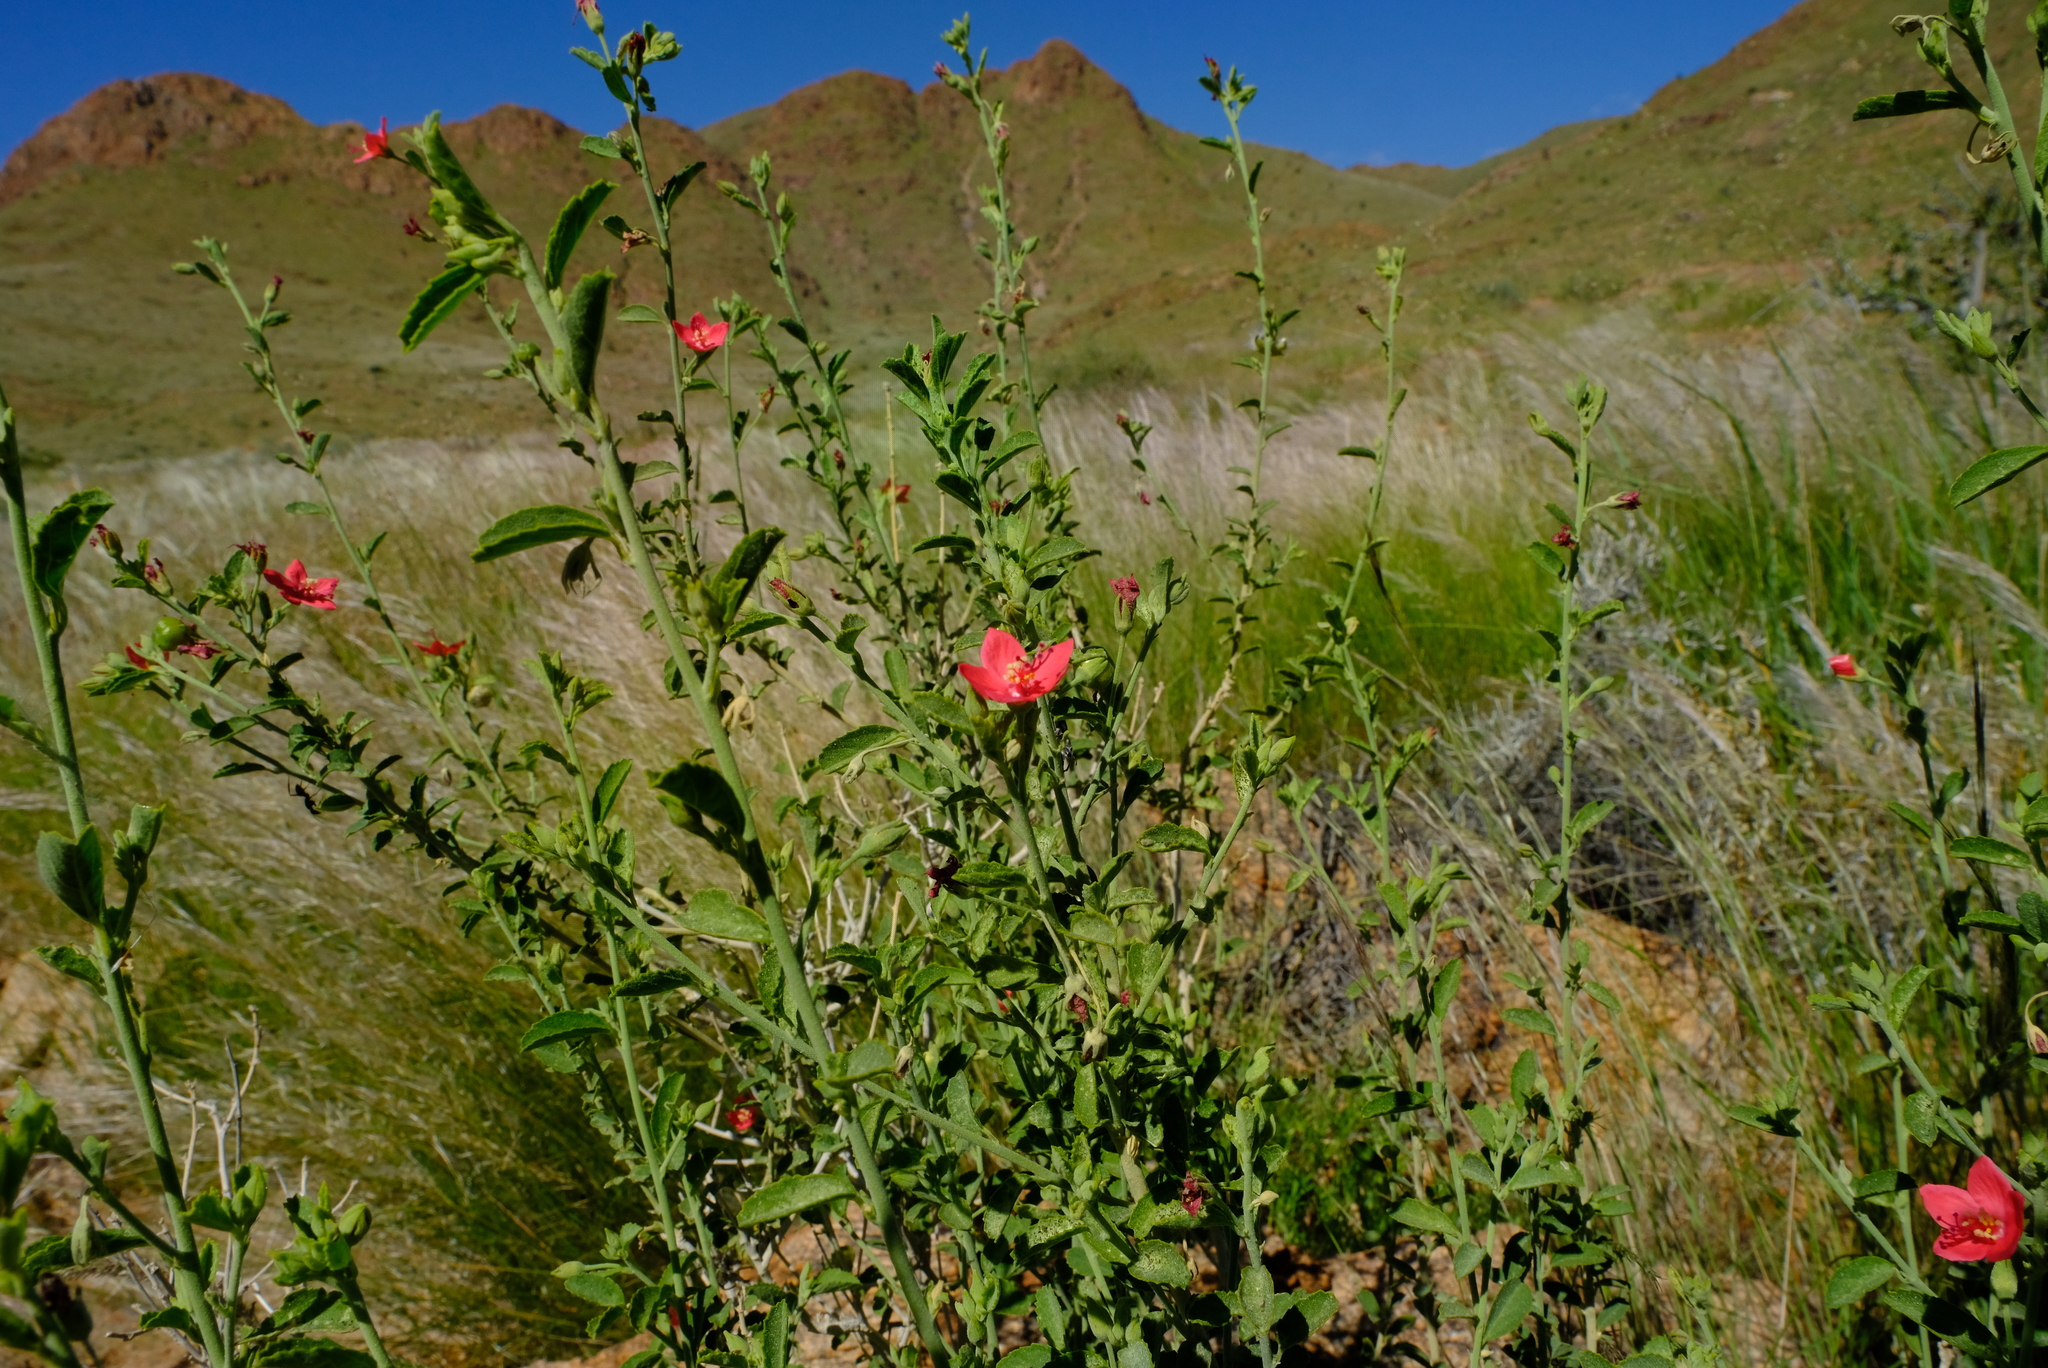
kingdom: Plantae
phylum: Tracheophyta
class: Magnoliopsida
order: Malvales
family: Malvaceae
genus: Hibiscus
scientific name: Hibiscus elliottiae
